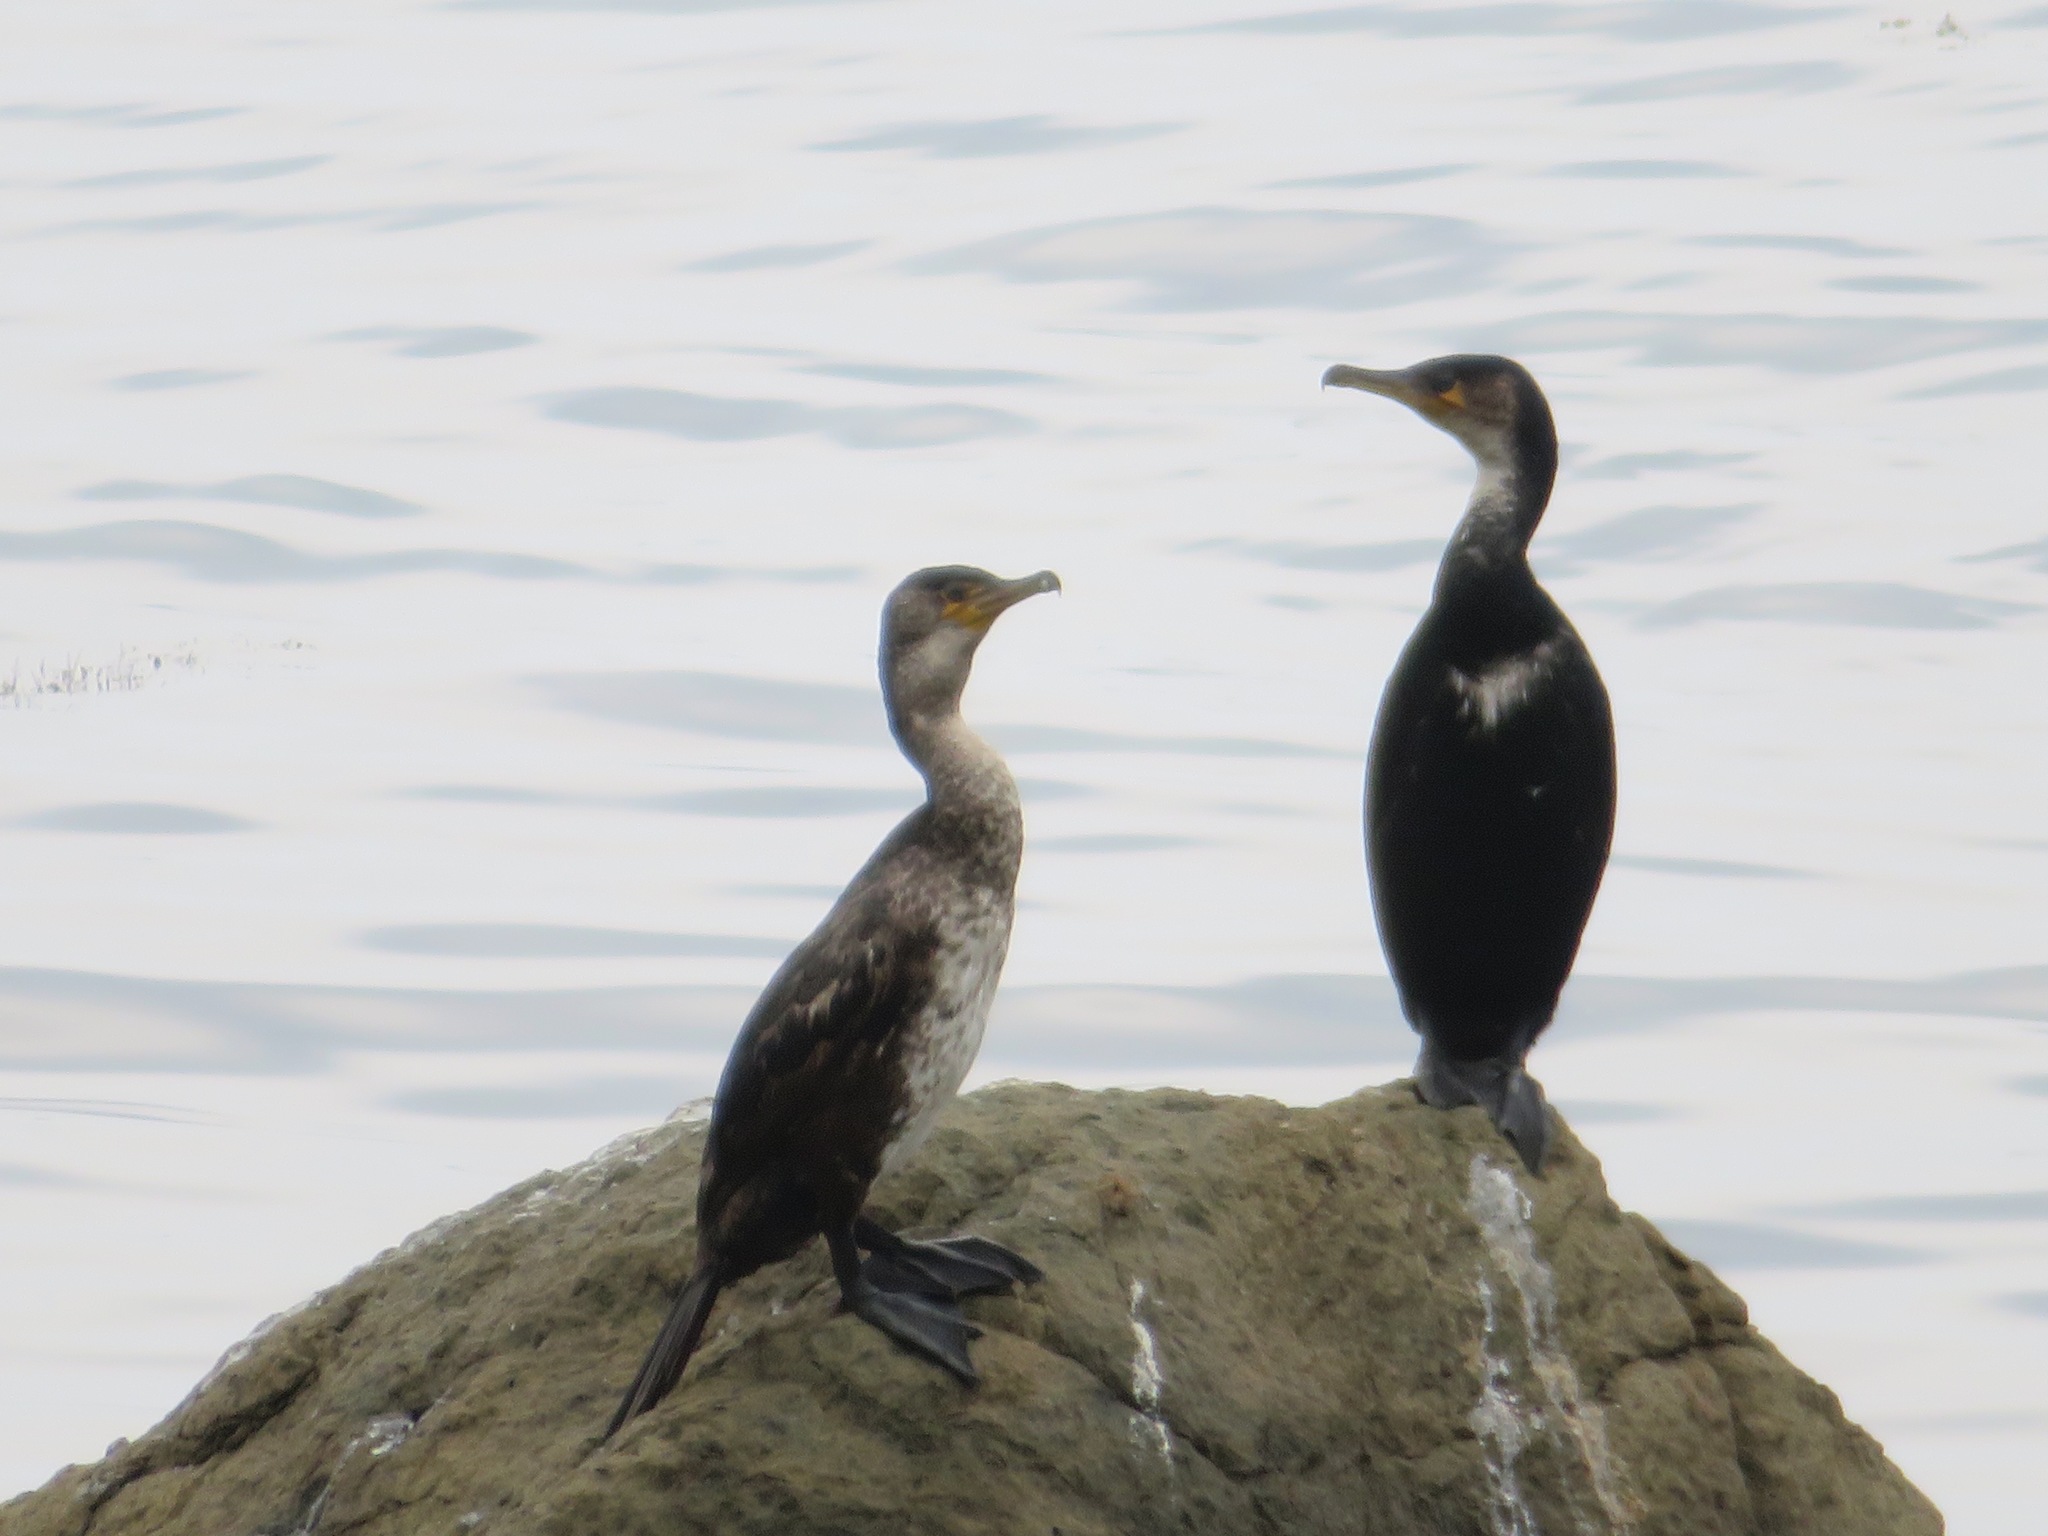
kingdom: Animalia
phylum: Chordata
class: Aves
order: Suliformes
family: Phalacrocoracidae
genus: Phalacrocorax
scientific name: Phalacrocorax capillatus
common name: Japanese cormorant
